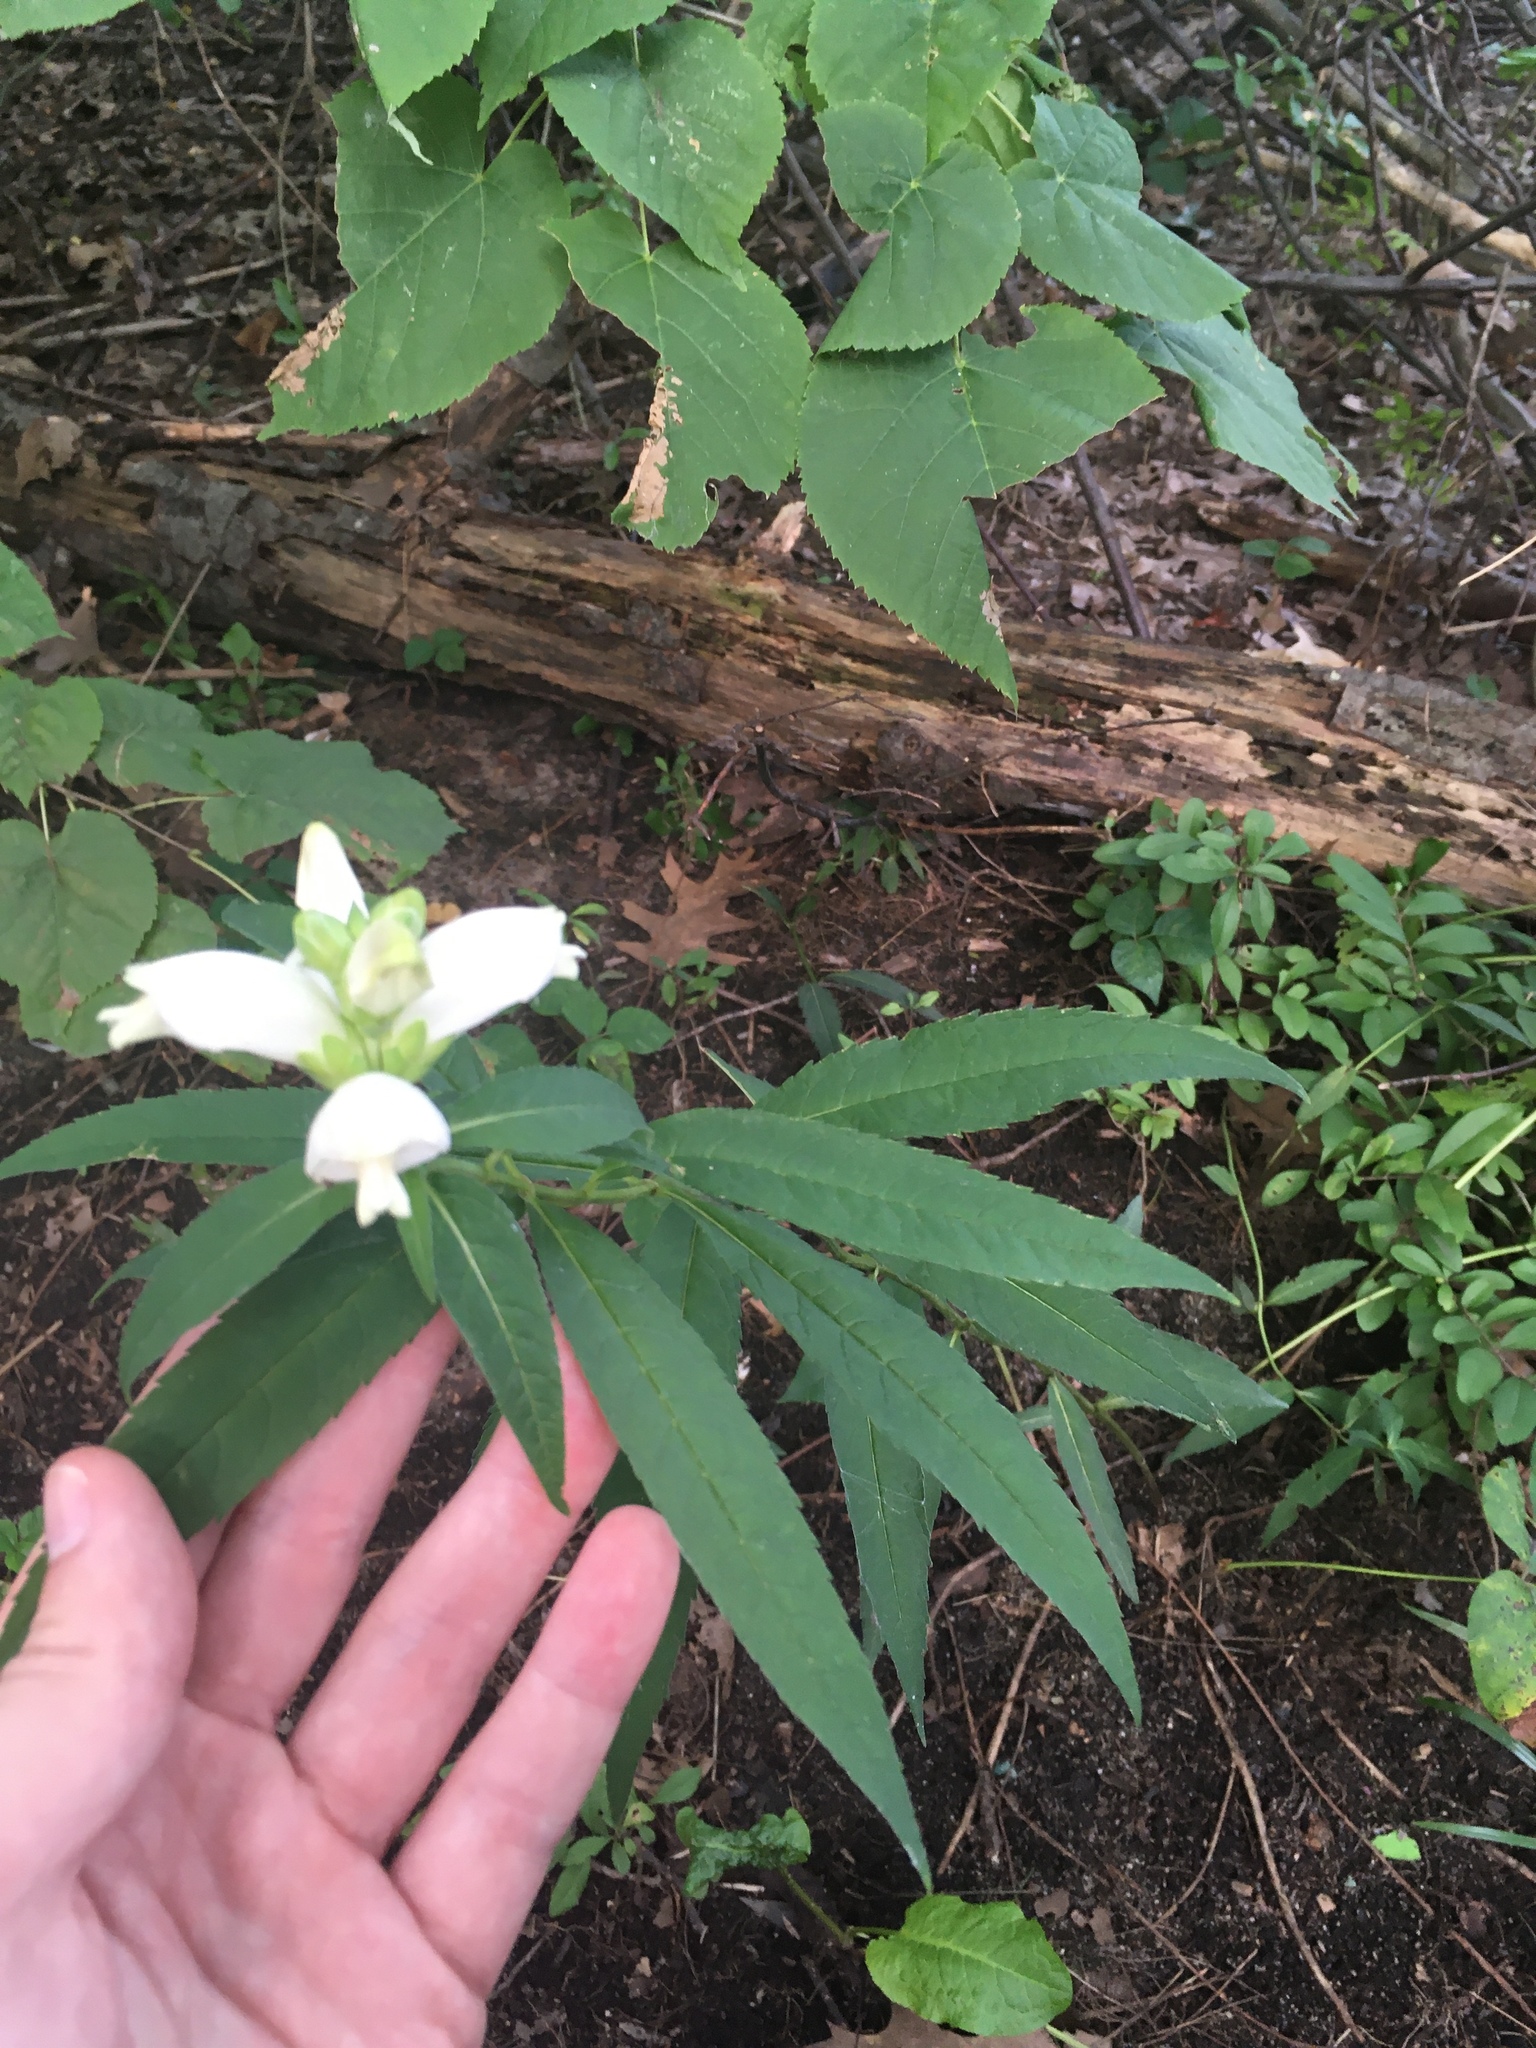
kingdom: Plantae
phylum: Tracheophyta
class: Magnoliopsida
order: Lamiales
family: Plantaginaceae
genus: Chelone
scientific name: Chelone glabra
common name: Snakehead
